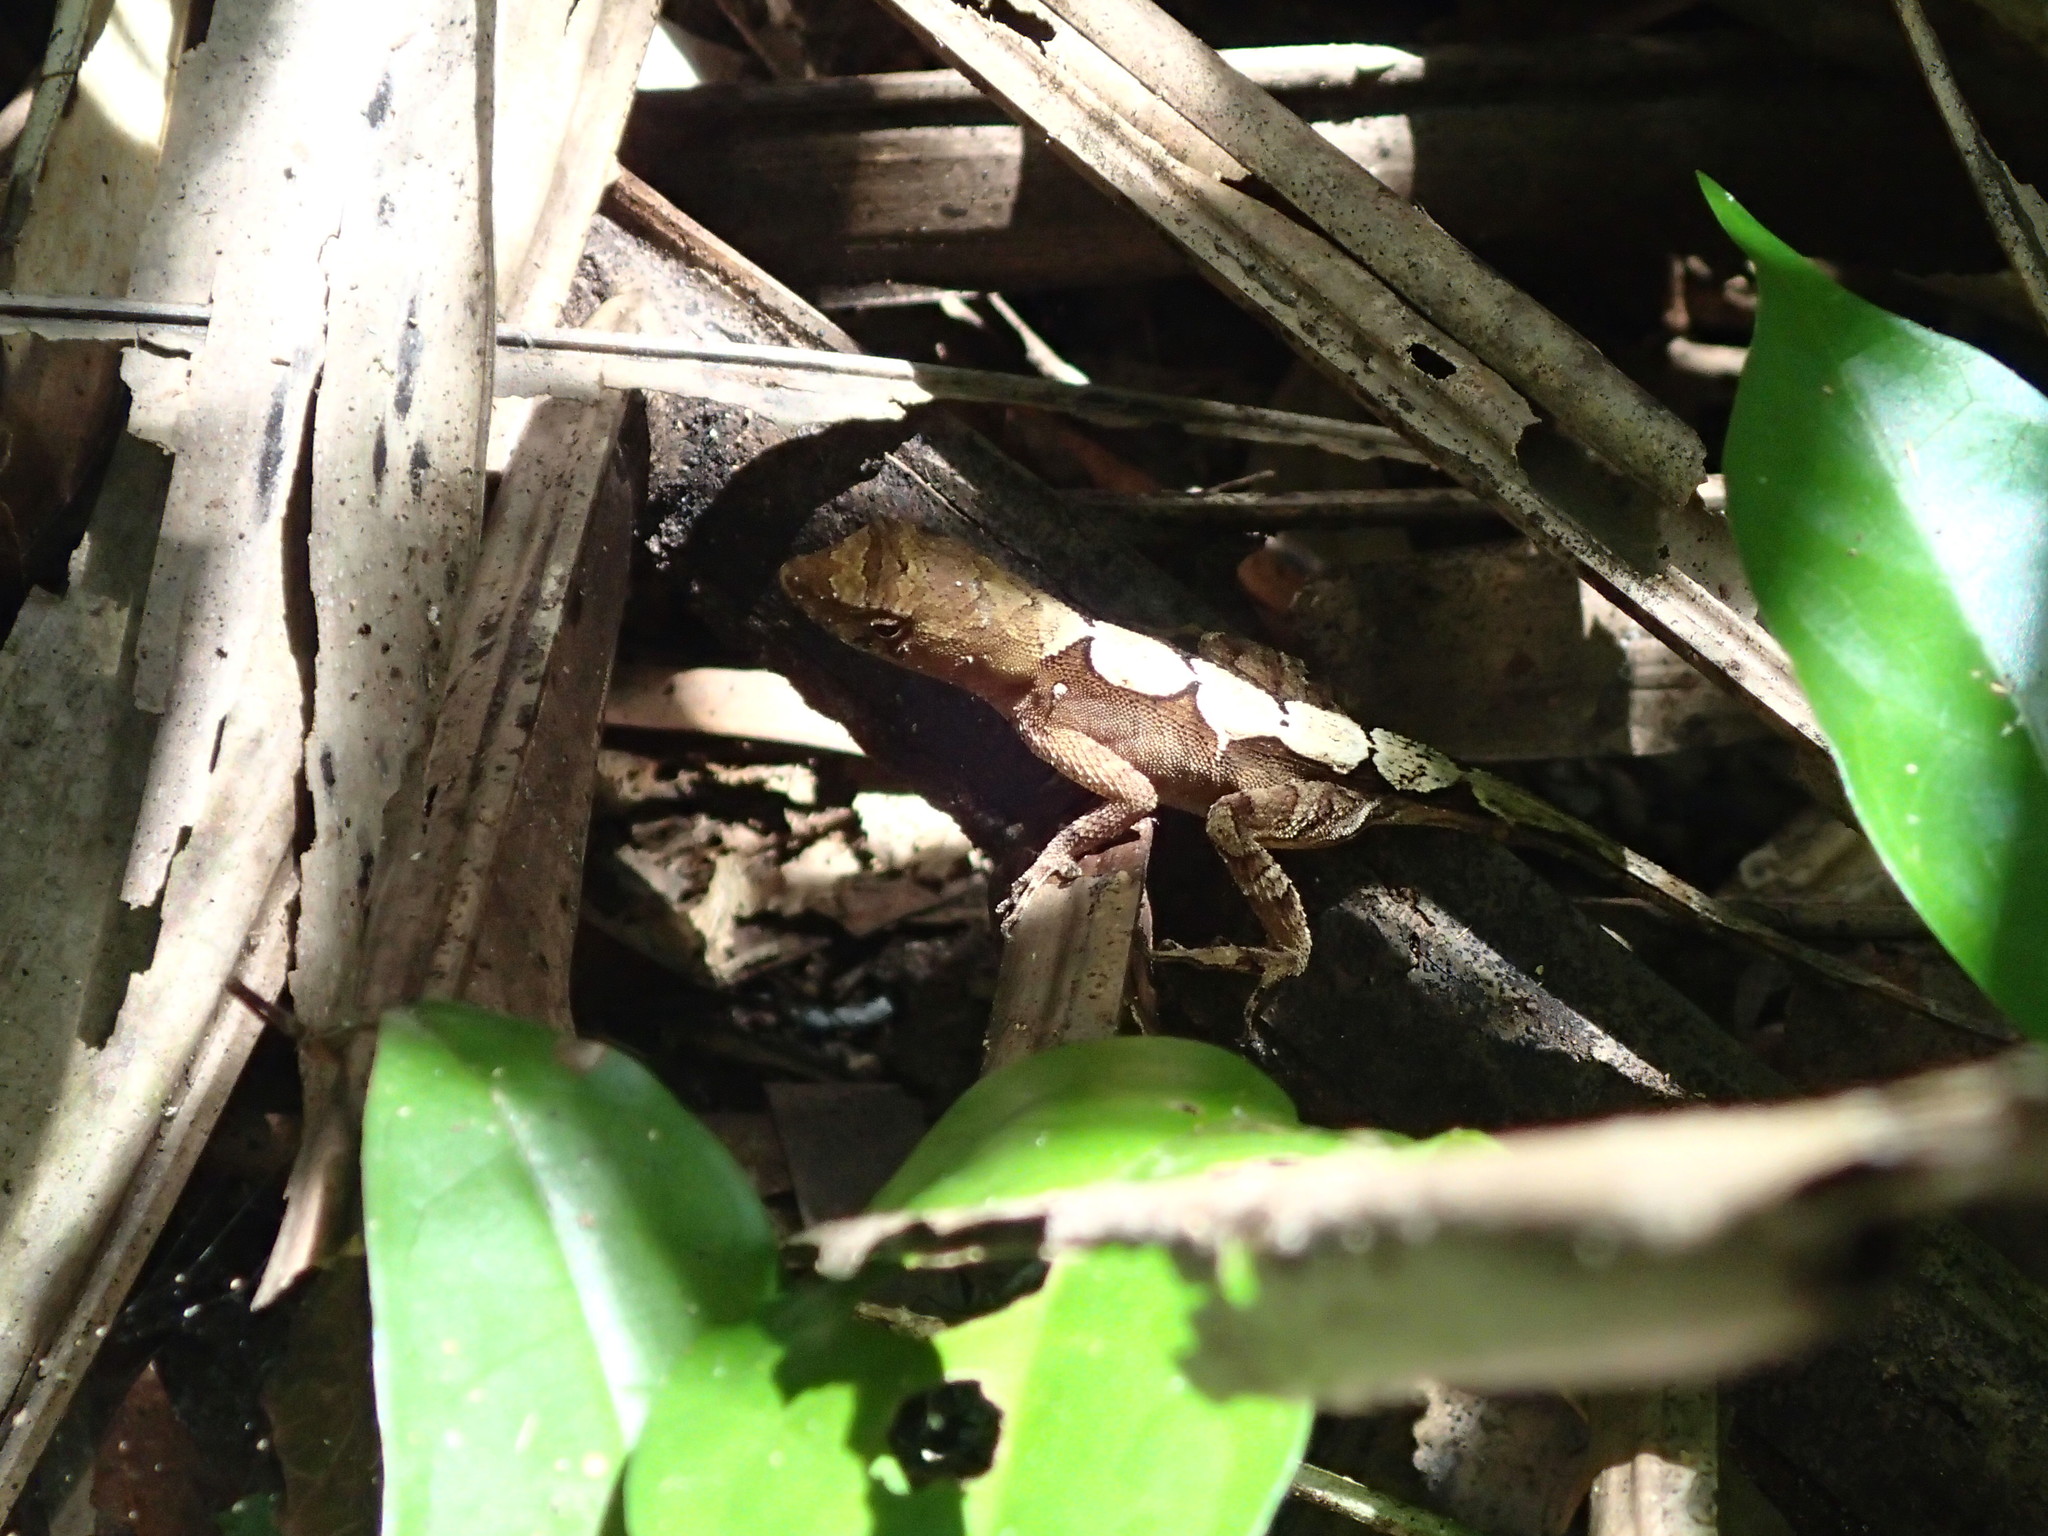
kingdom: Animalia
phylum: Chordata
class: Squamata
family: Dactyloidae
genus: Anolis
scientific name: Anolis tropidonotus
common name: Greater scaly anole
